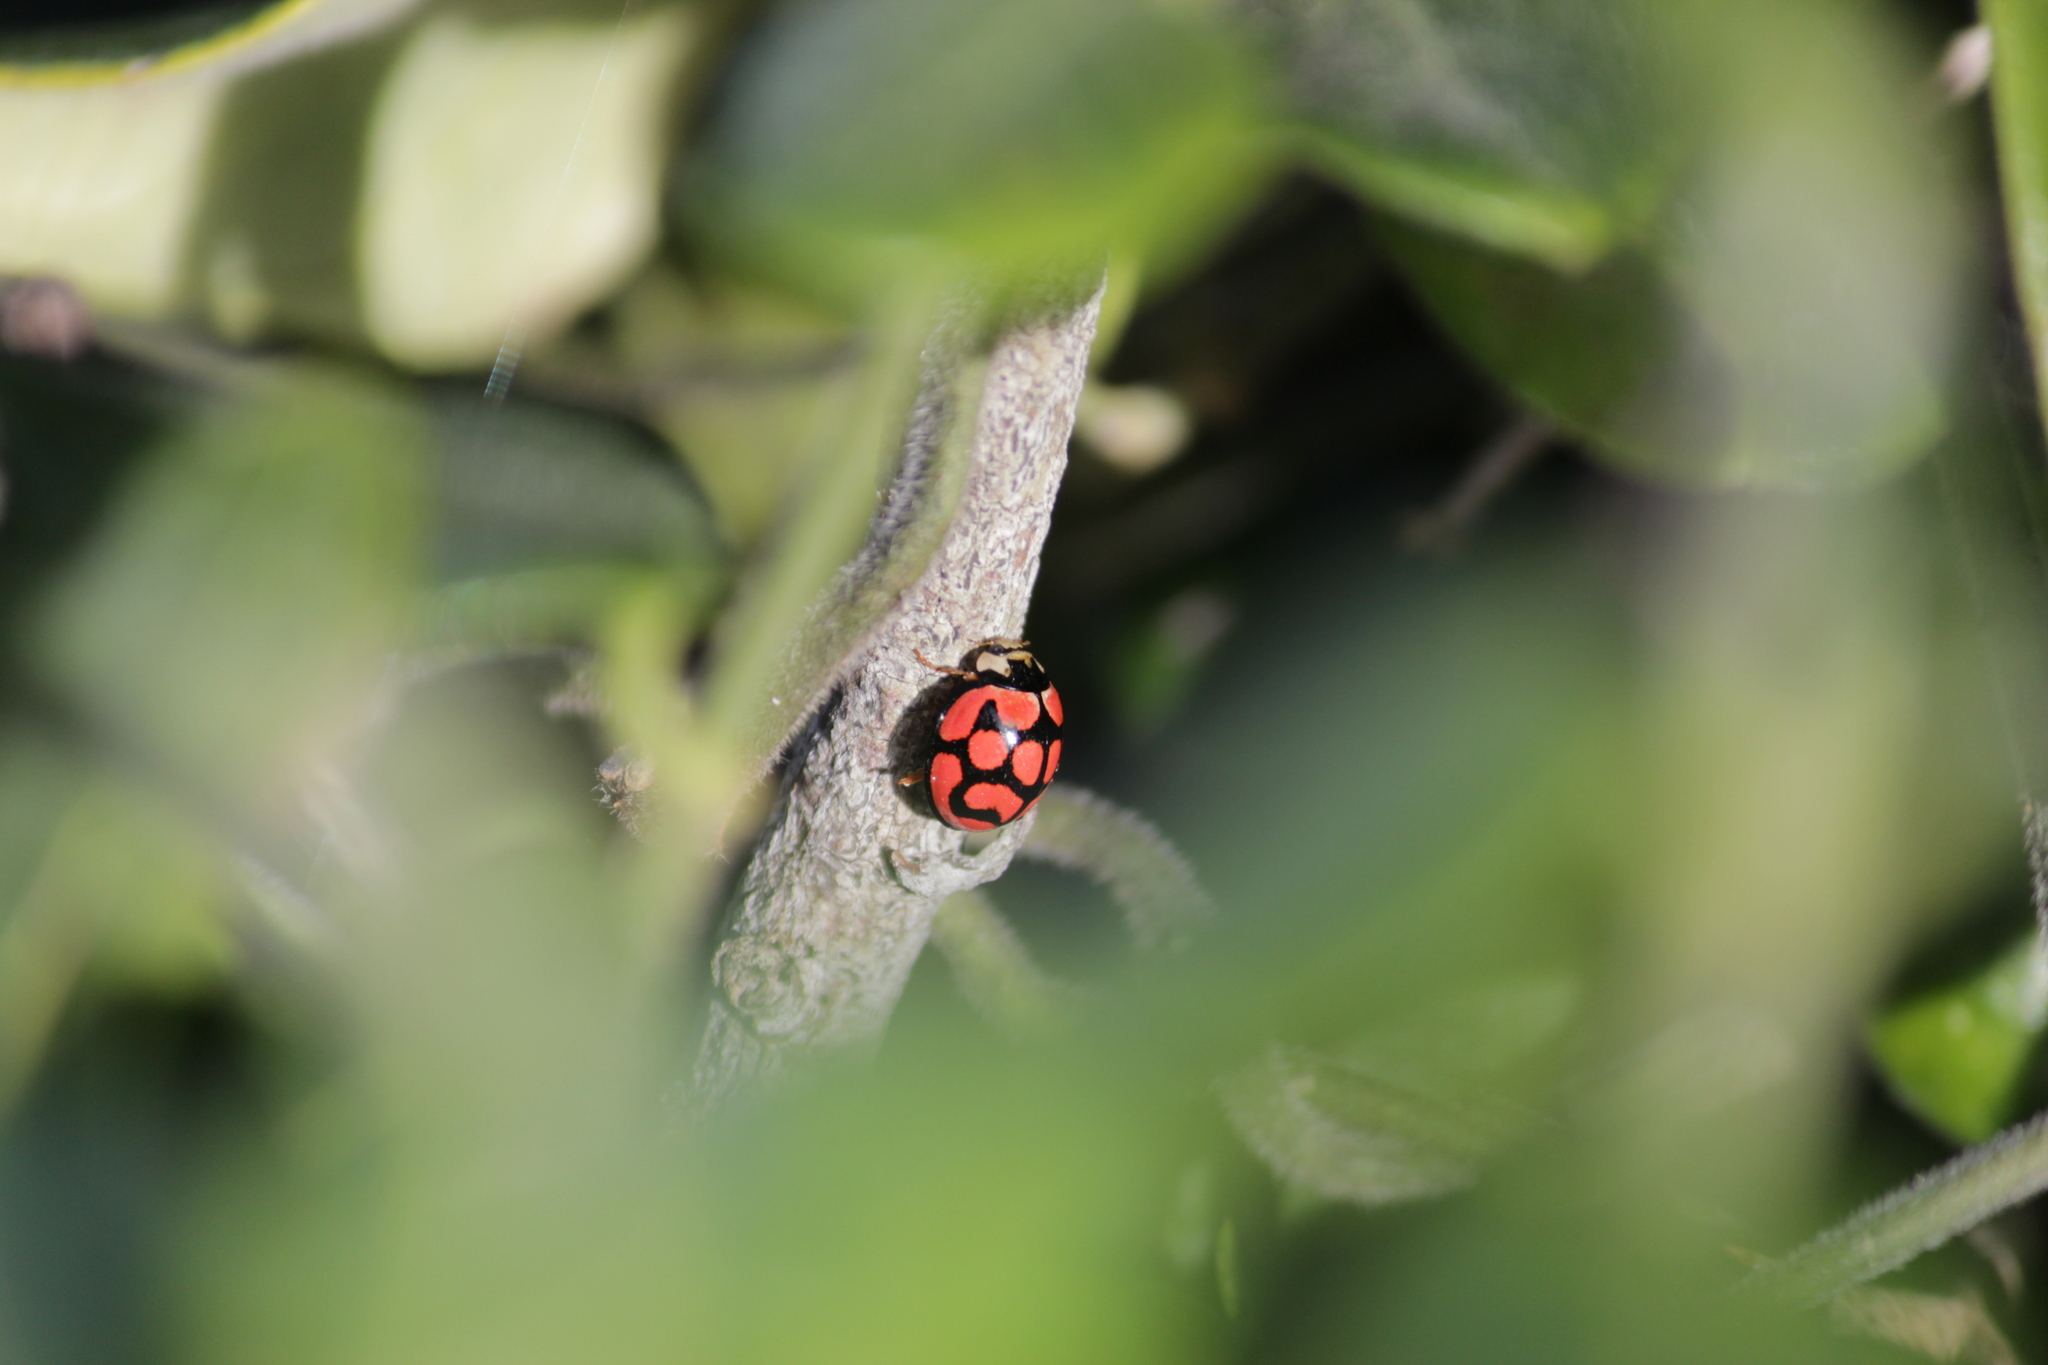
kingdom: Animalia
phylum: Arthropoda
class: Insecta
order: Coleoptera
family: Coccinellidae
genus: Cheilomenes
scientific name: Cheilomenes lunata
